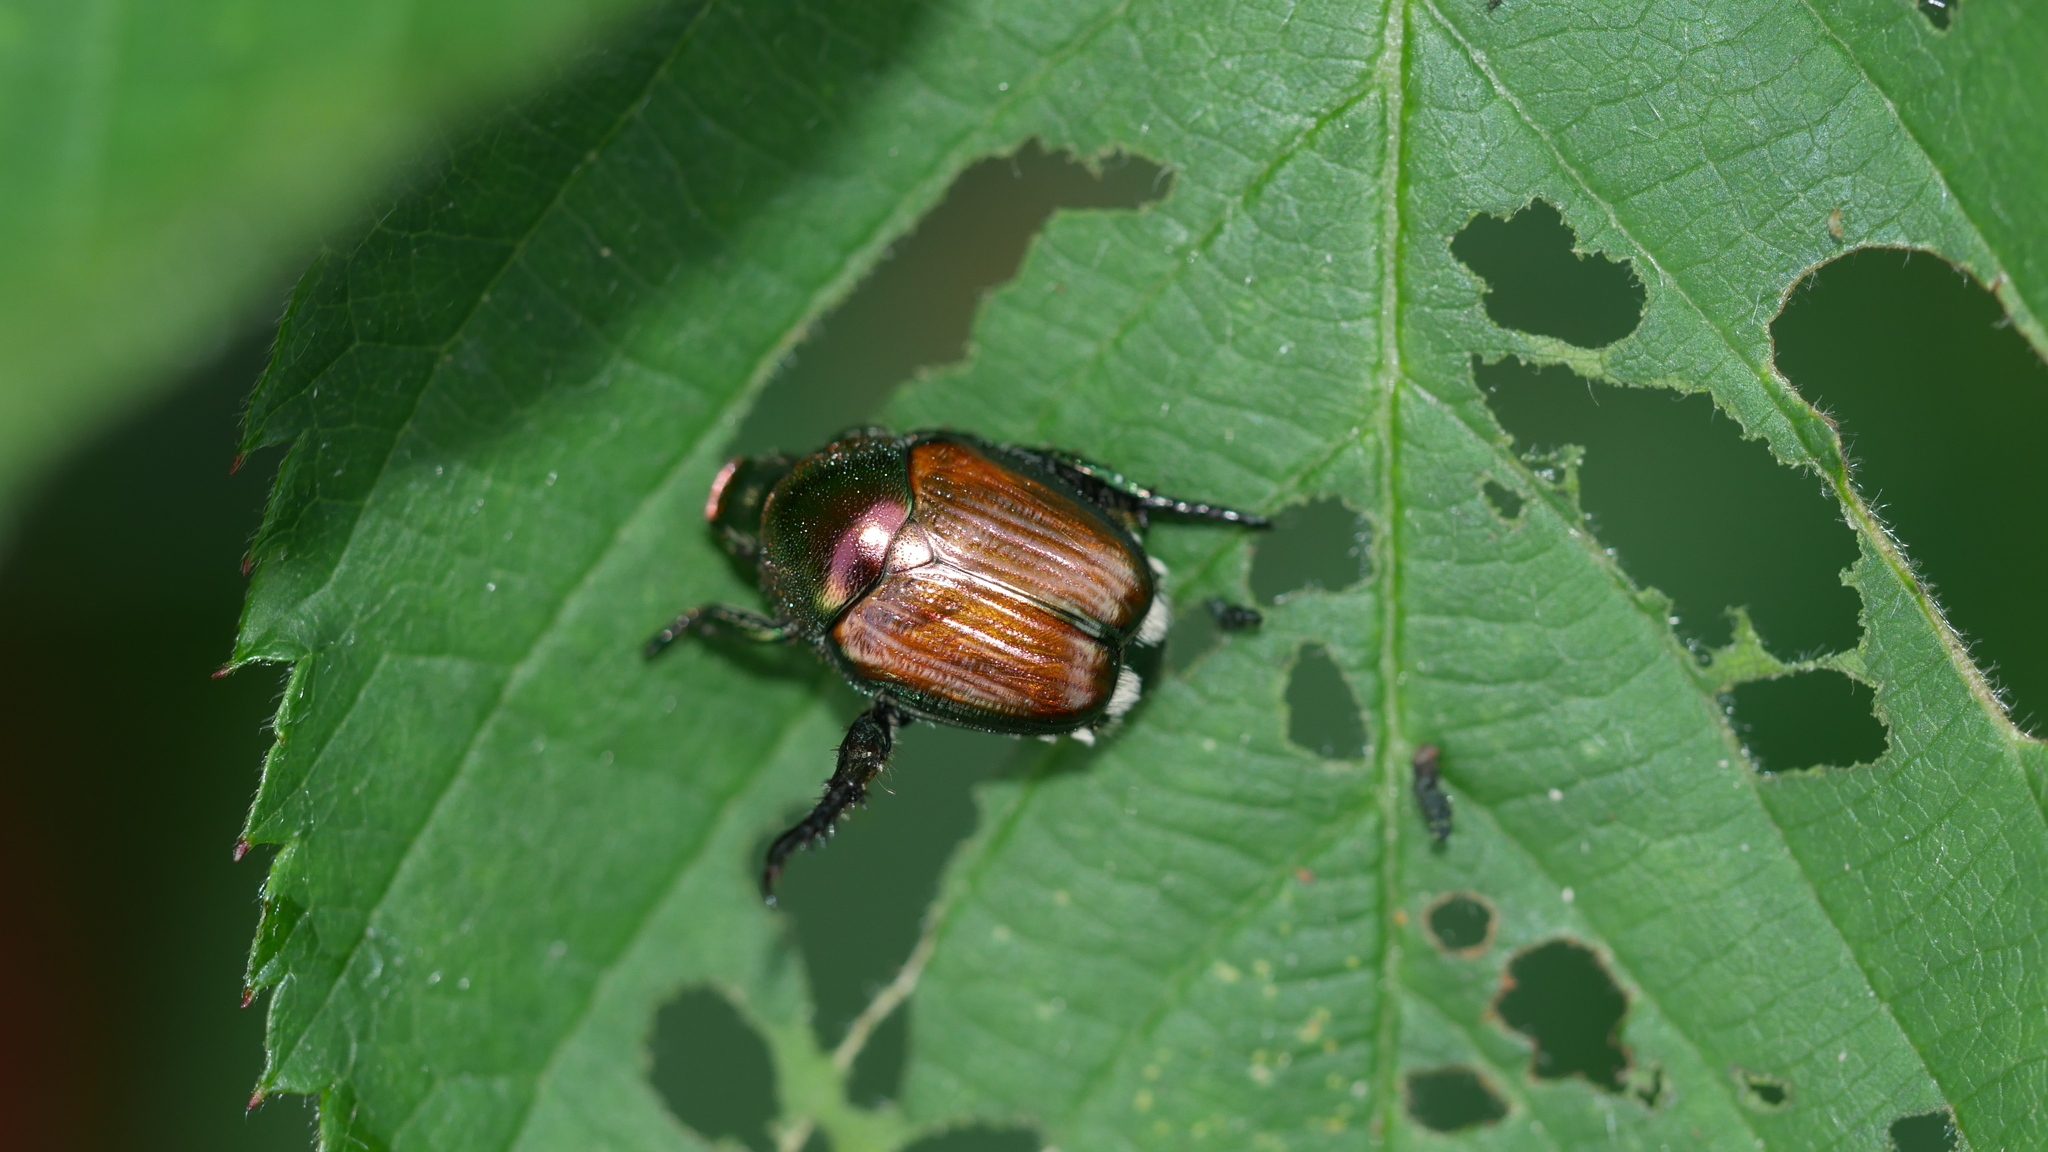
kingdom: Animalia
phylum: Arthropoda
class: Insecta
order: Coleoptera
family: Scarabaeidae
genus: Popillia
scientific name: Popillia japonica
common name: Japanese beetle
